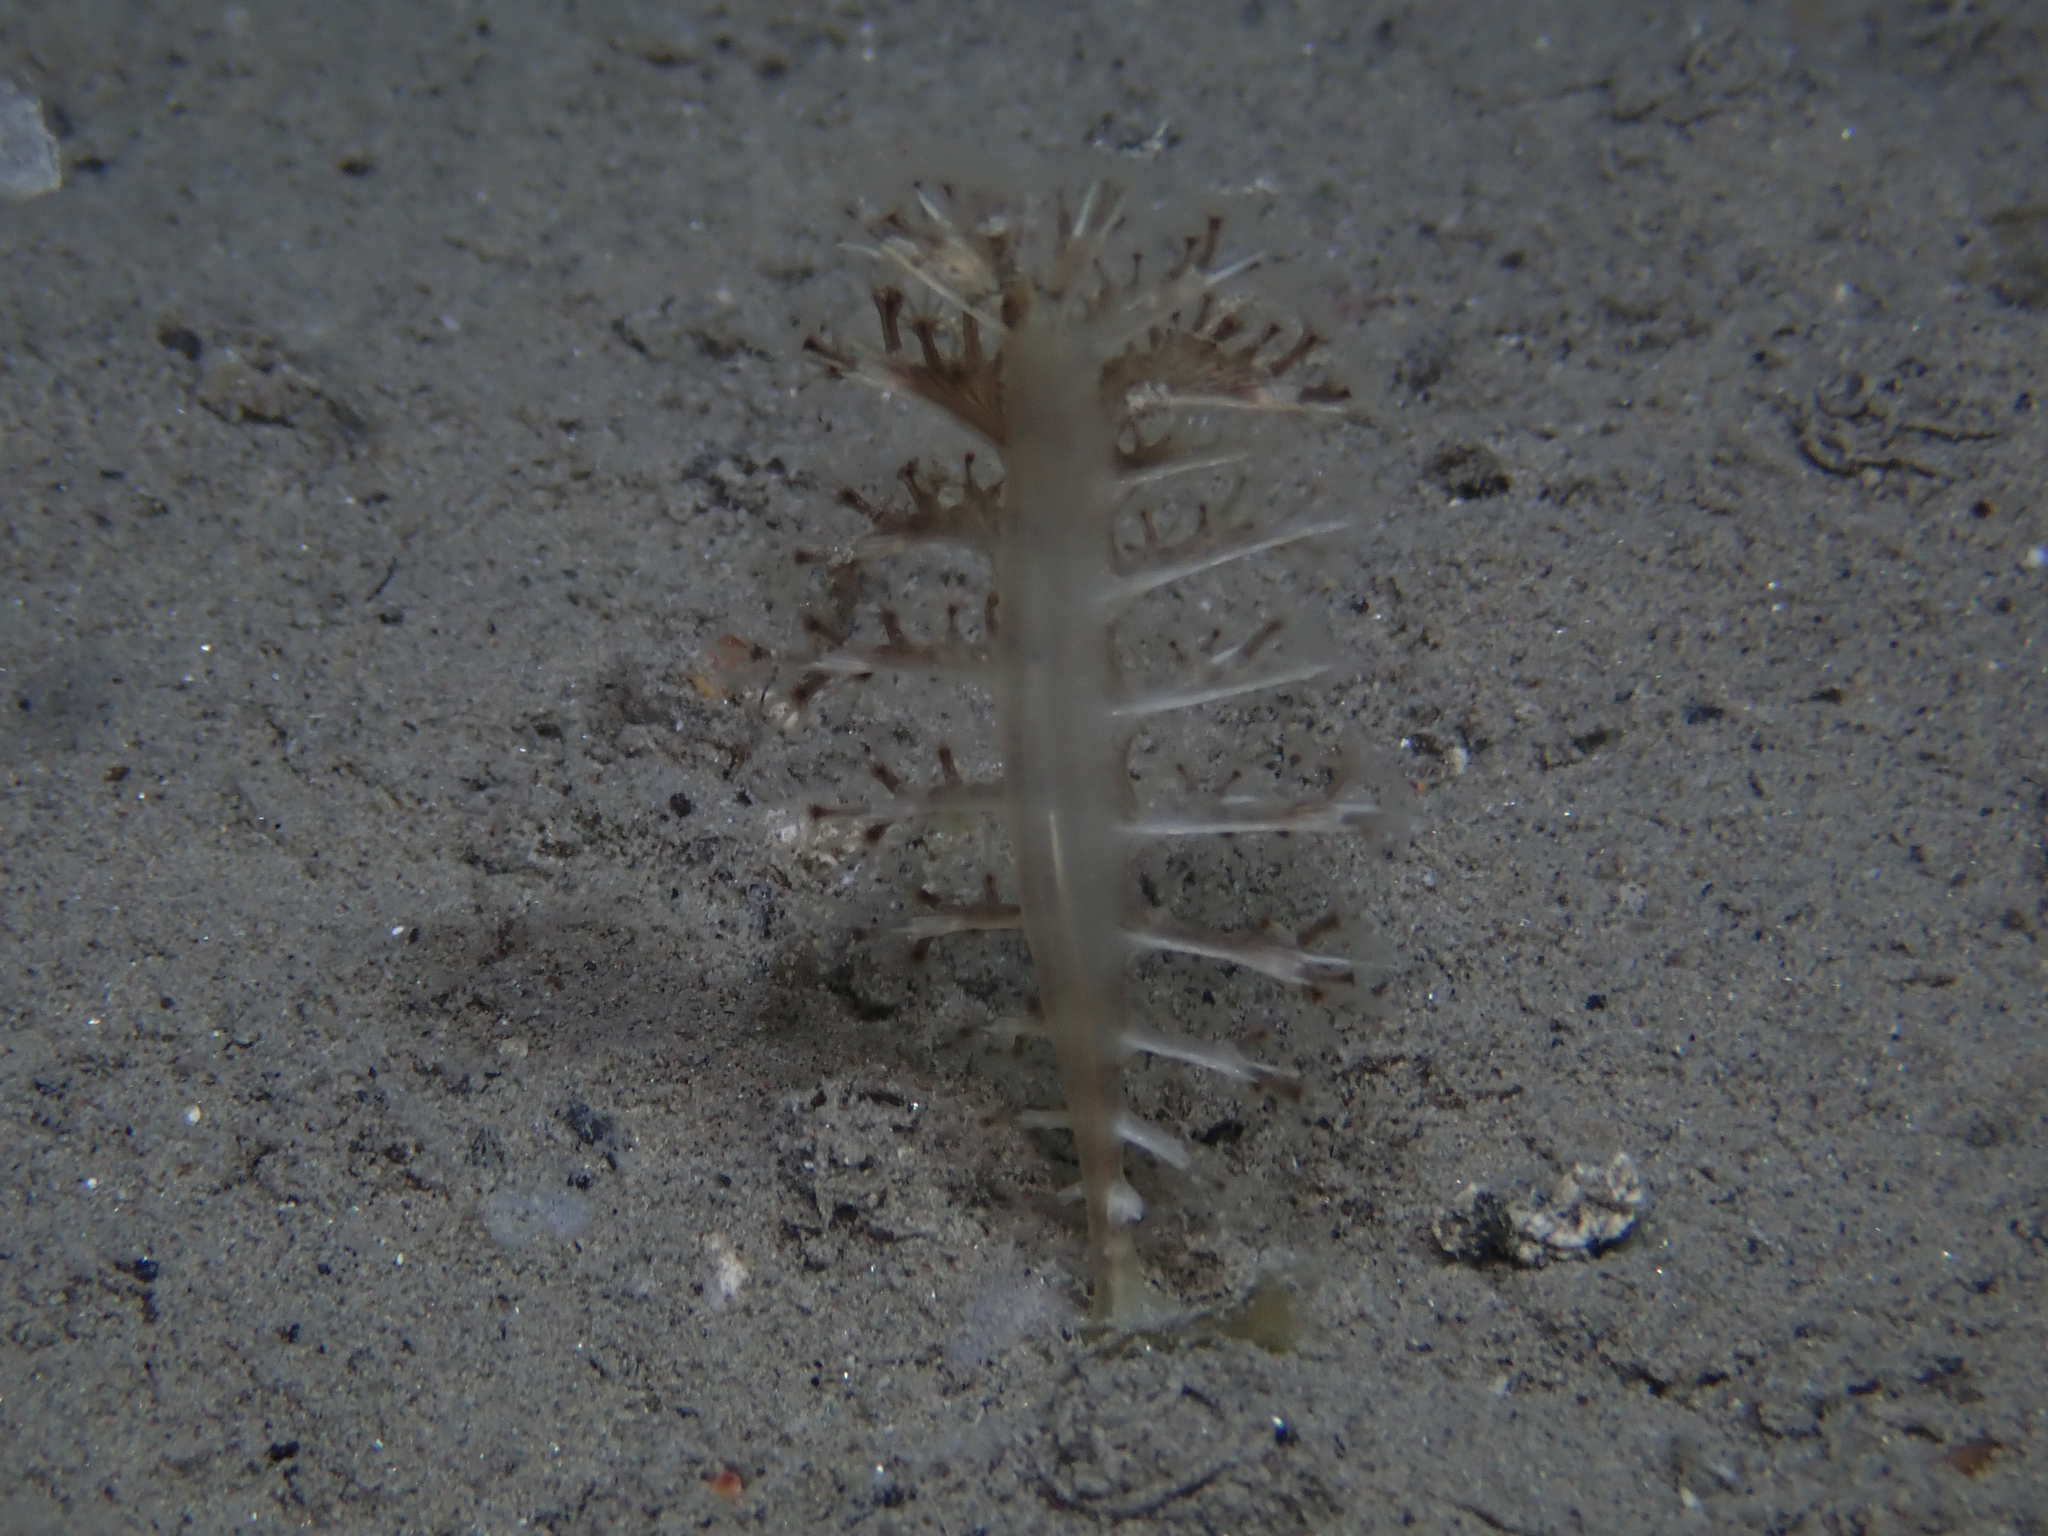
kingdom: Animalia
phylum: Cnidaria
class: Anthozoa
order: Scleralcyonacea
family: Pennatulidae
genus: Pteroeides
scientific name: Pteroeides griseum
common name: Gray sea-pen
